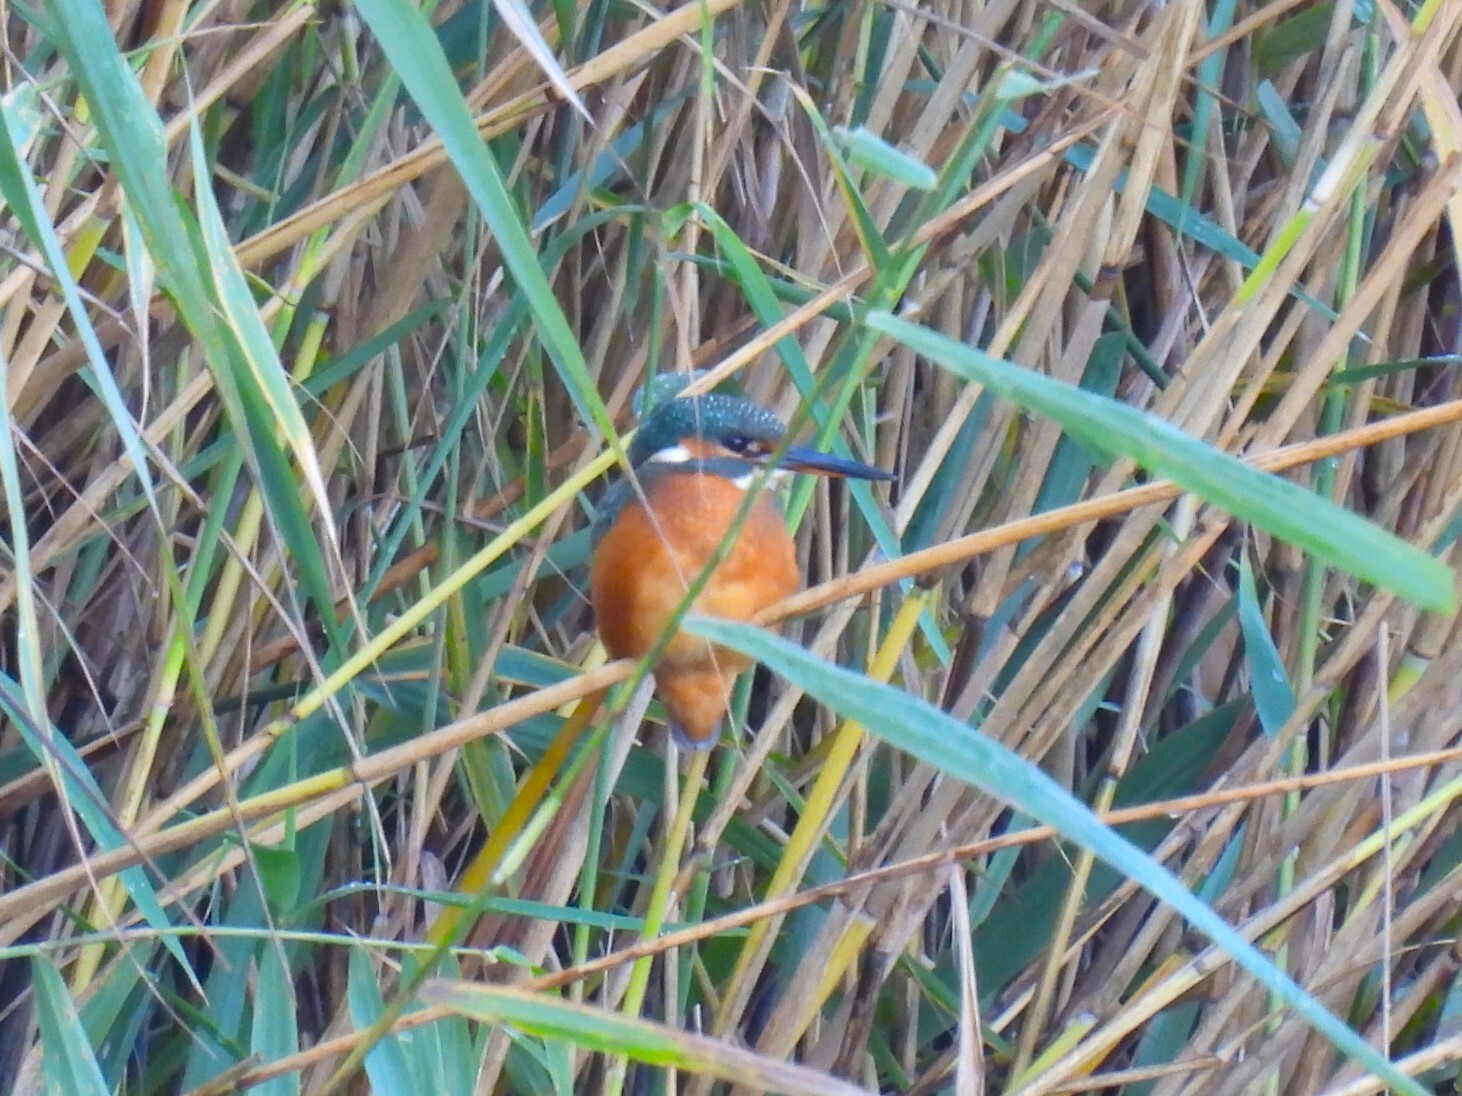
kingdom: Animalia
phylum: Chordata
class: Aves
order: Coraciiformes
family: Alcedinidae
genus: Alcedo
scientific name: Alcedo atthis
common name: Common kingfisher
